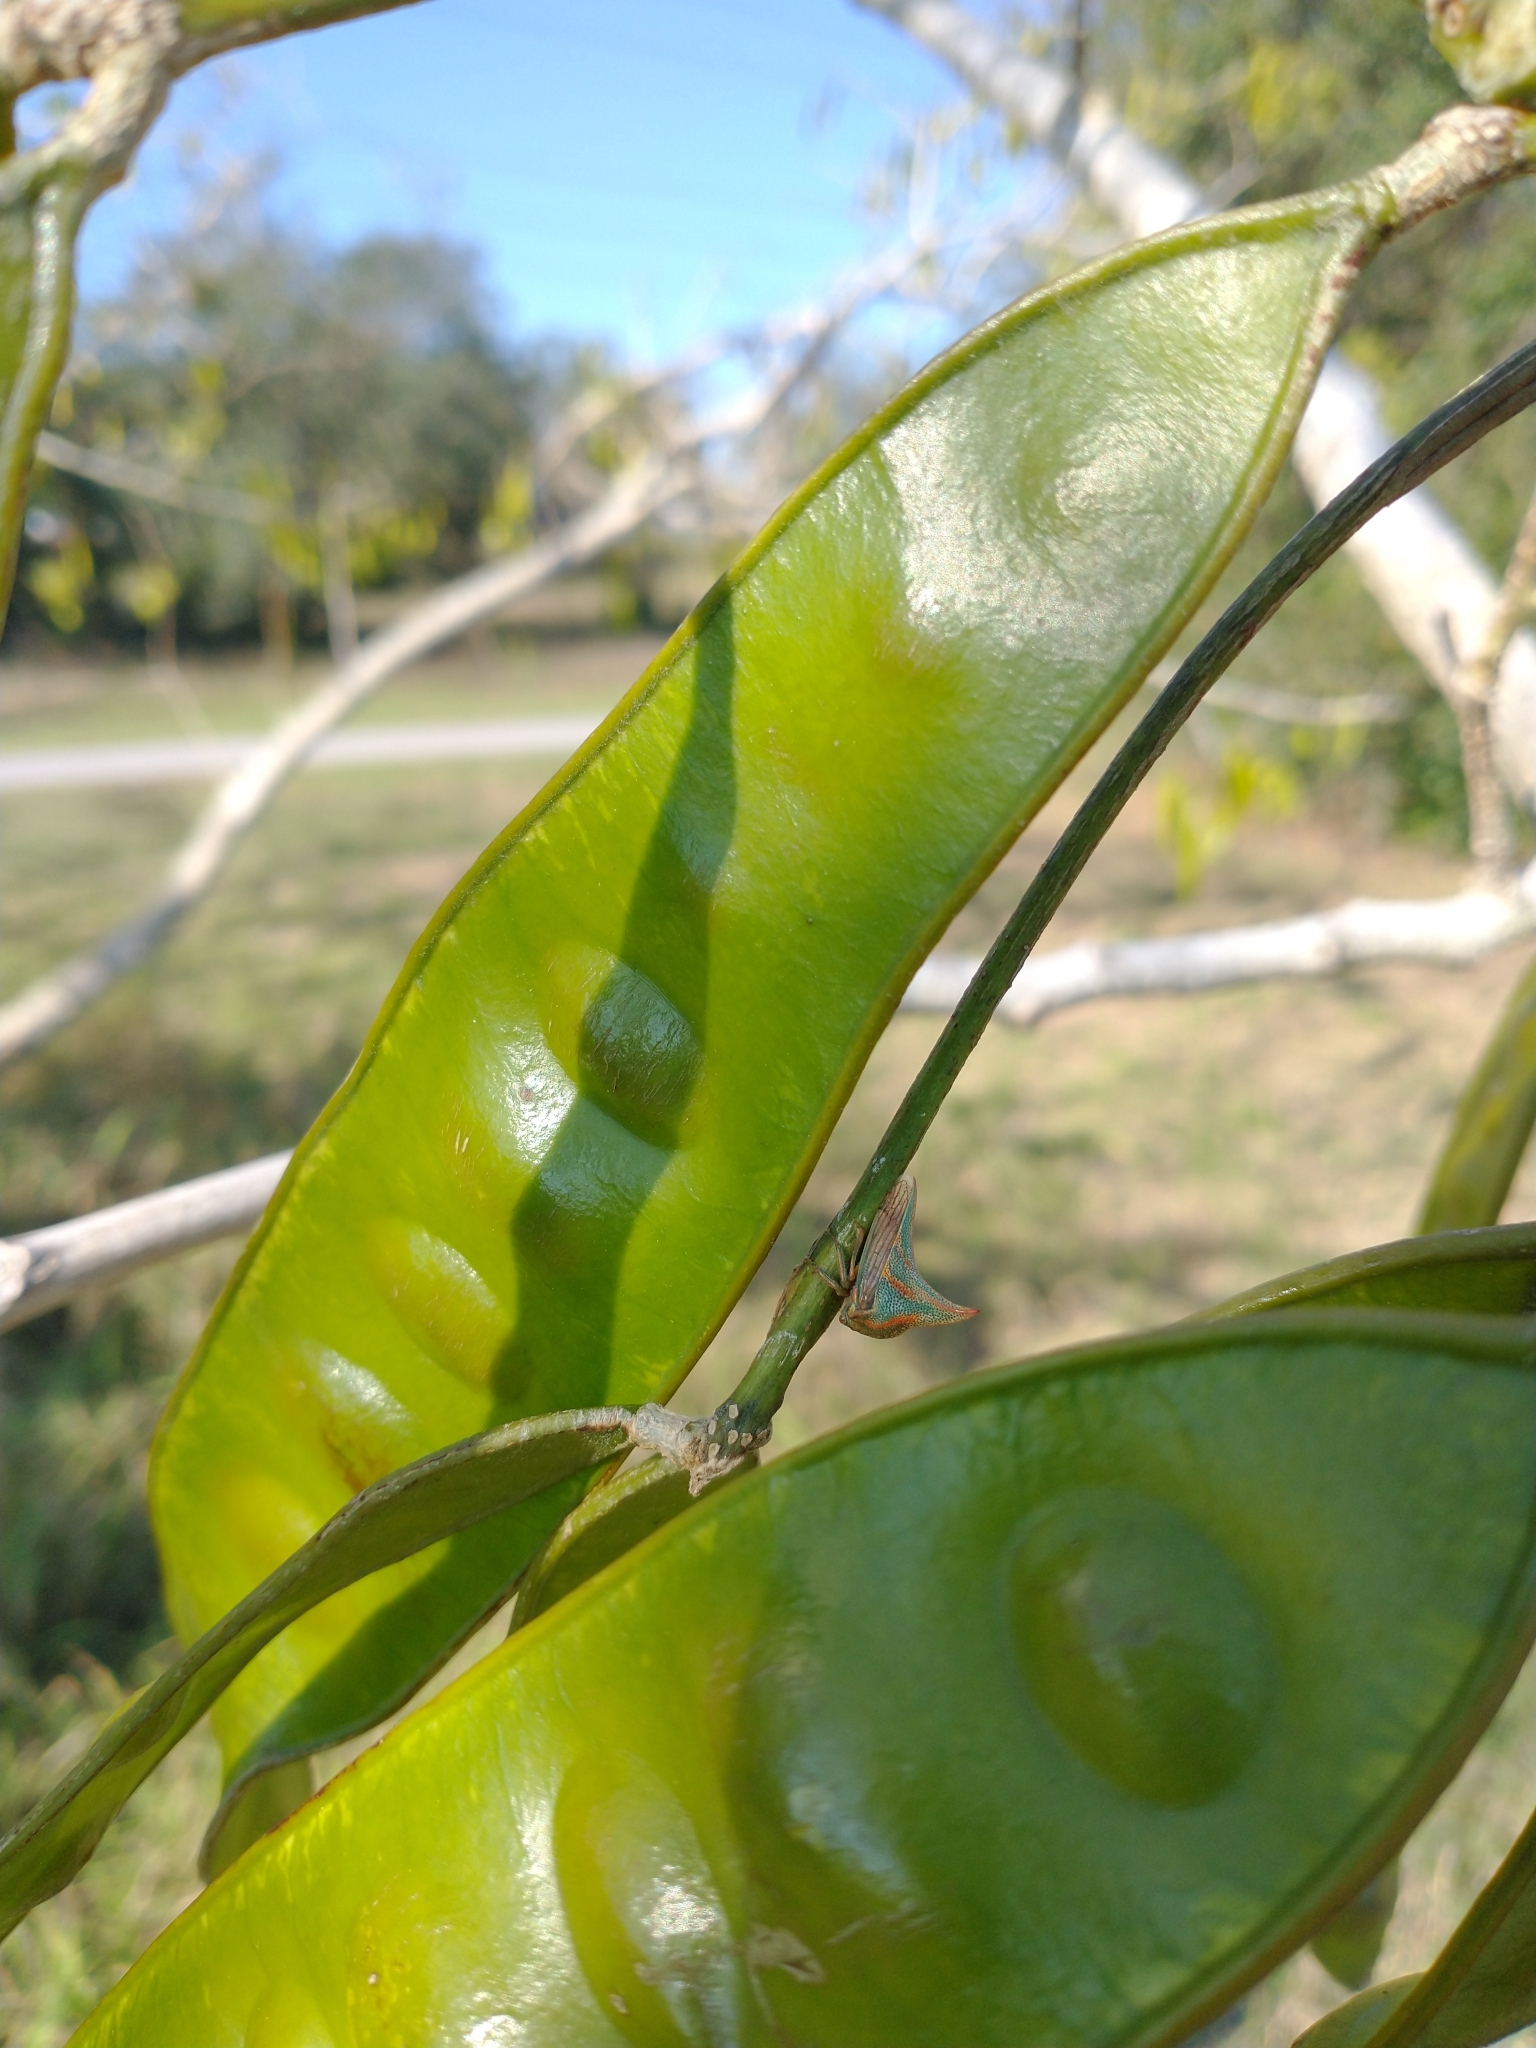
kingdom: Animalia
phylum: Arthropoda
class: Insecta
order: Hemiptera
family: Membracidae
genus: Umbonia
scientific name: Umbonia crassicornis
